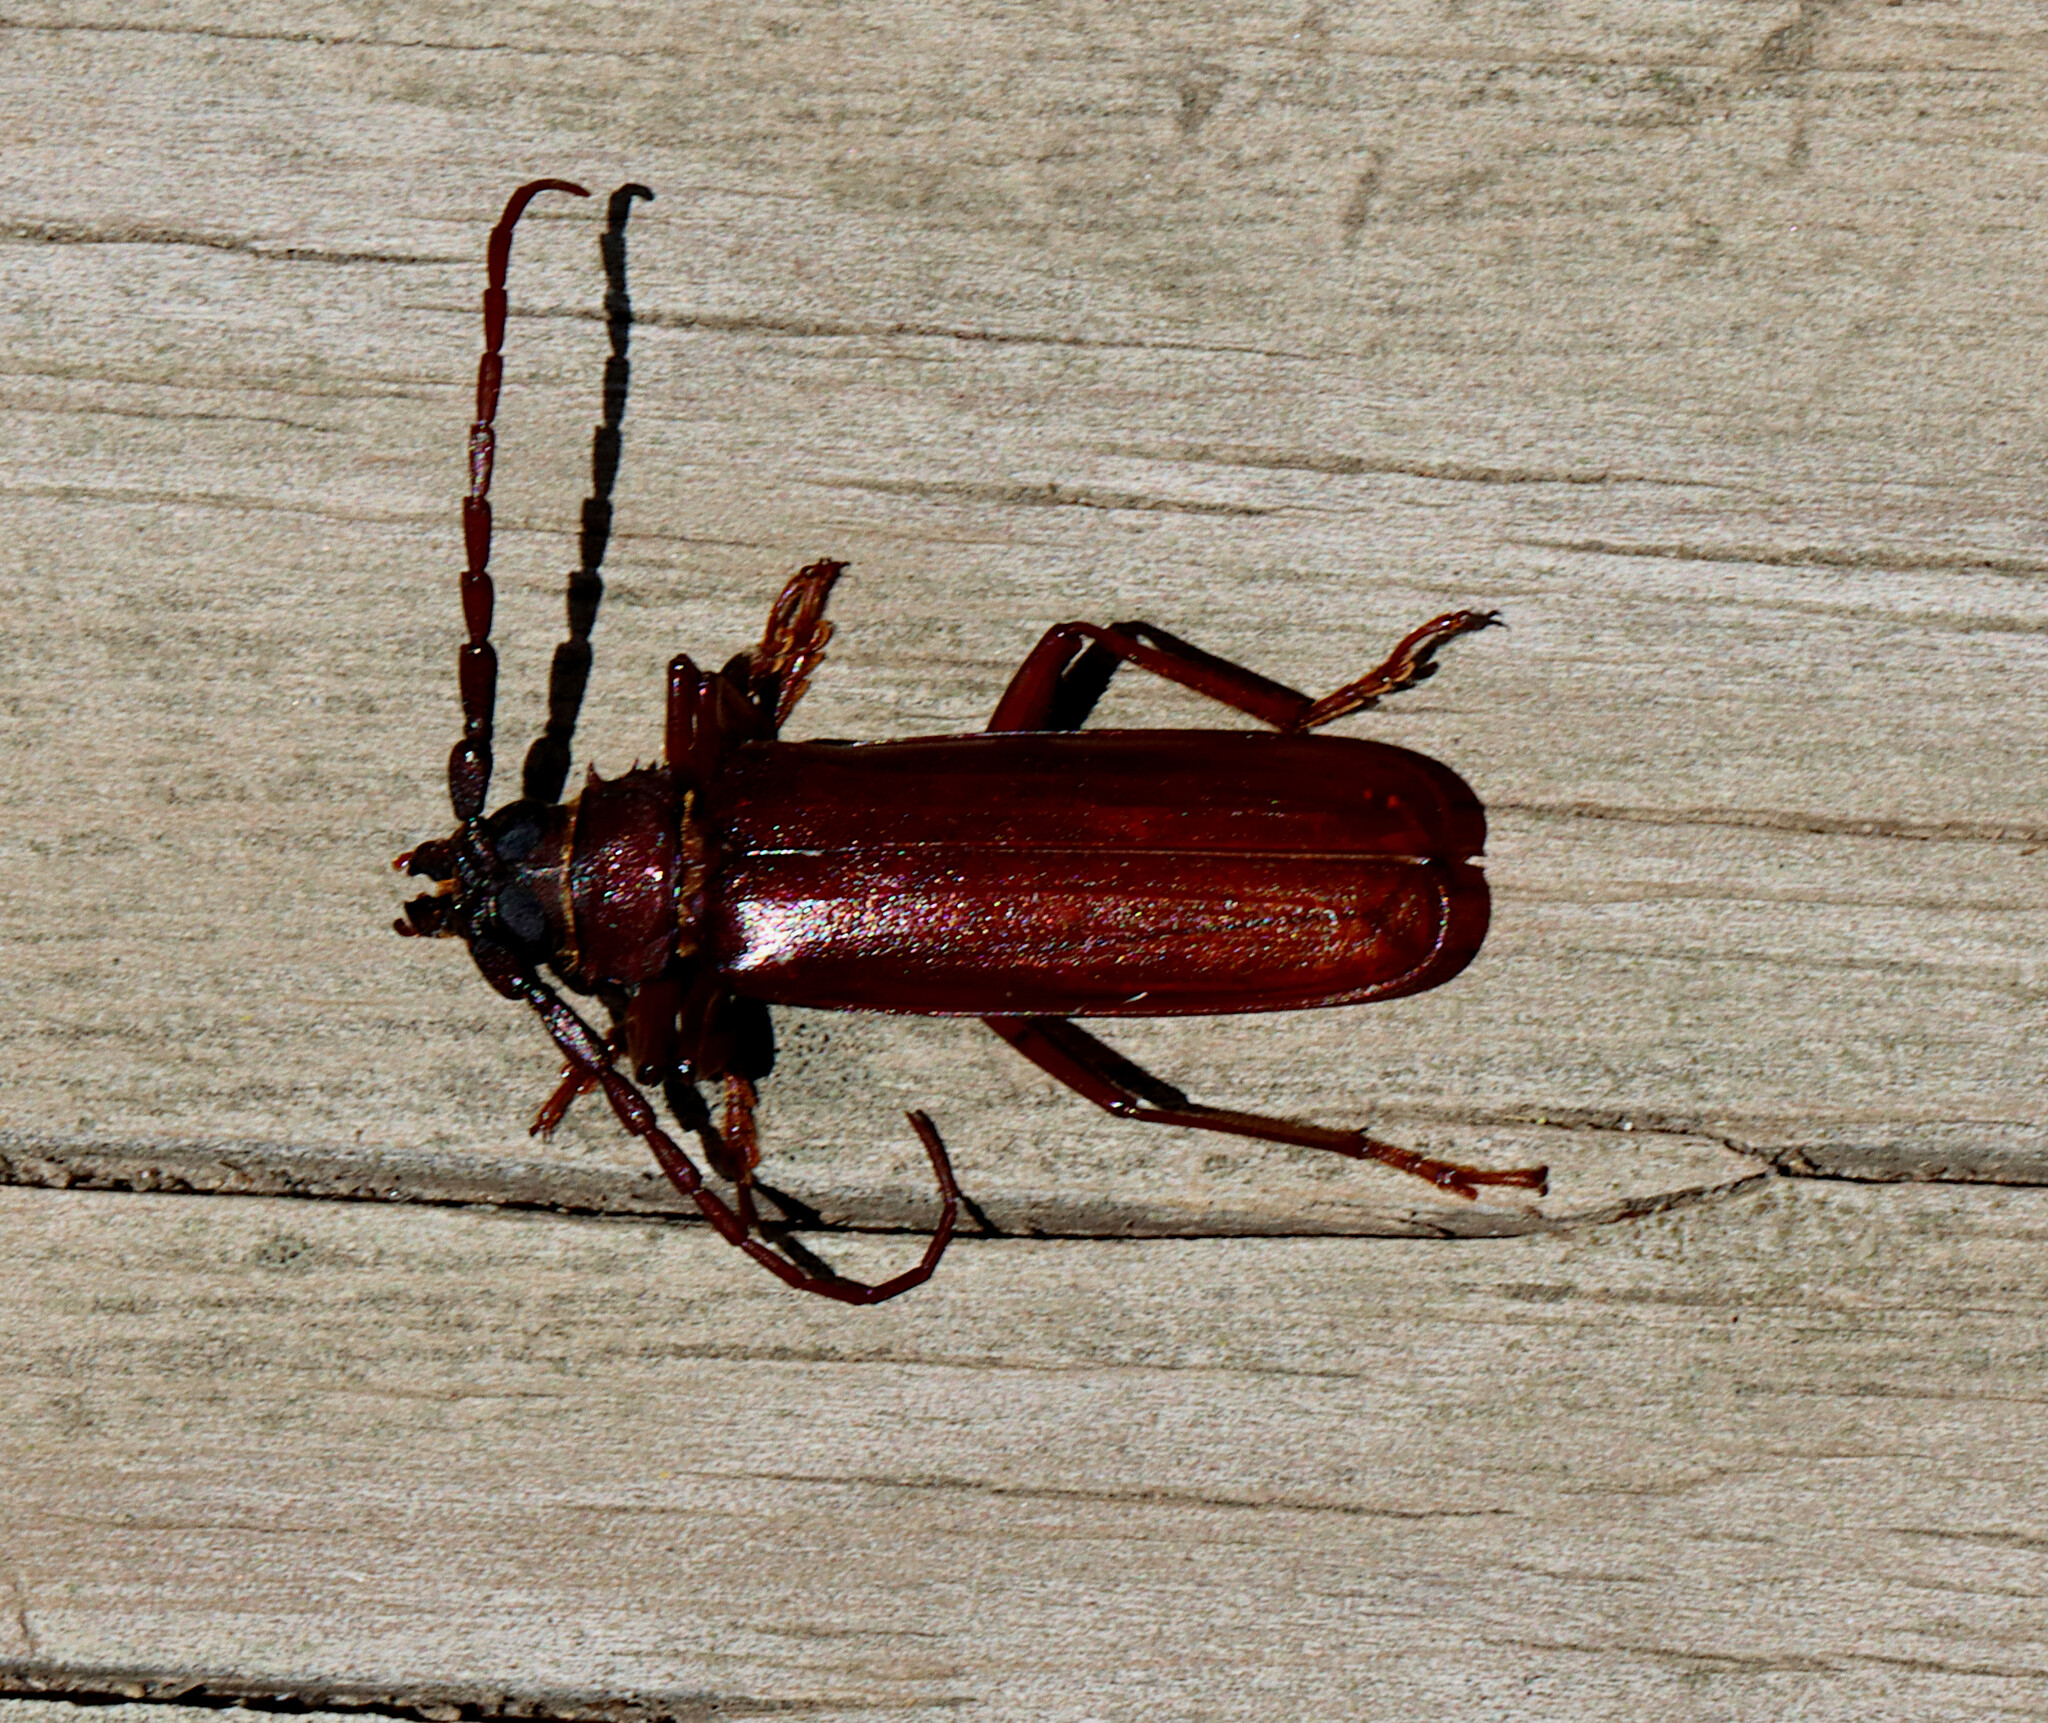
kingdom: Animalia
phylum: Arthropoda
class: Insecta
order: Coleoptera
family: Cerambycidae
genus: Orthosoma
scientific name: Orthosoma brunneum
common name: Brown prionid beetle
